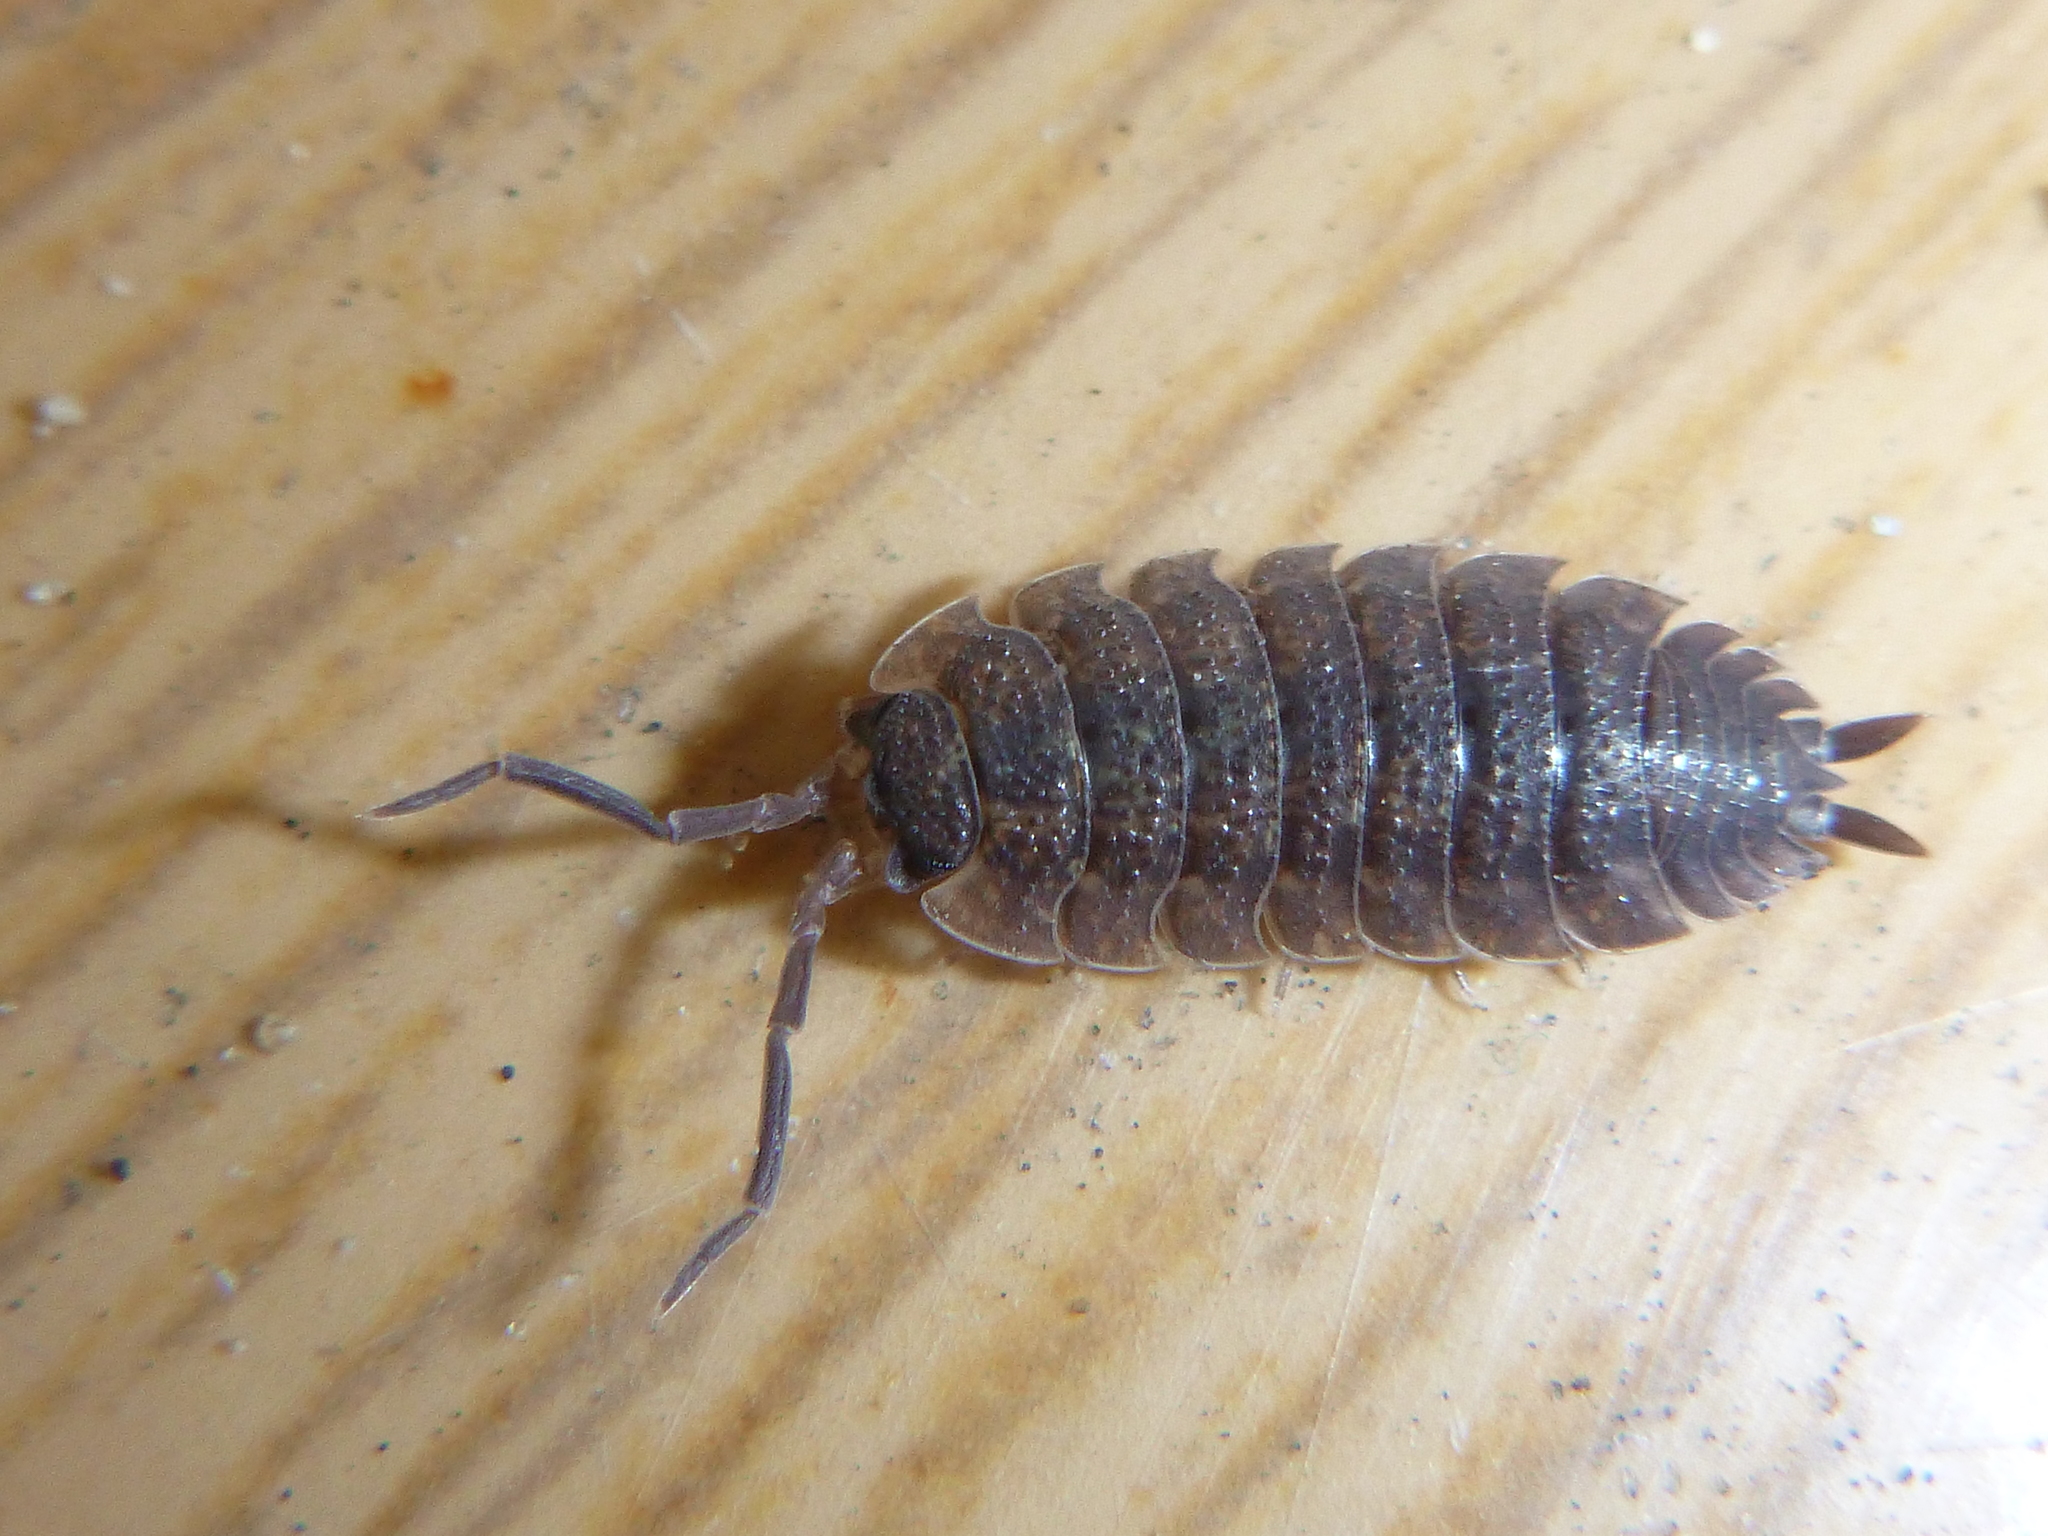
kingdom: Animalia
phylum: Arthropoda
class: Malacostraca
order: Isopoda
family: Porcellionidae
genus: Porcellio
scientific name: Porcellio scaber
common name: Common rough woodlouse
